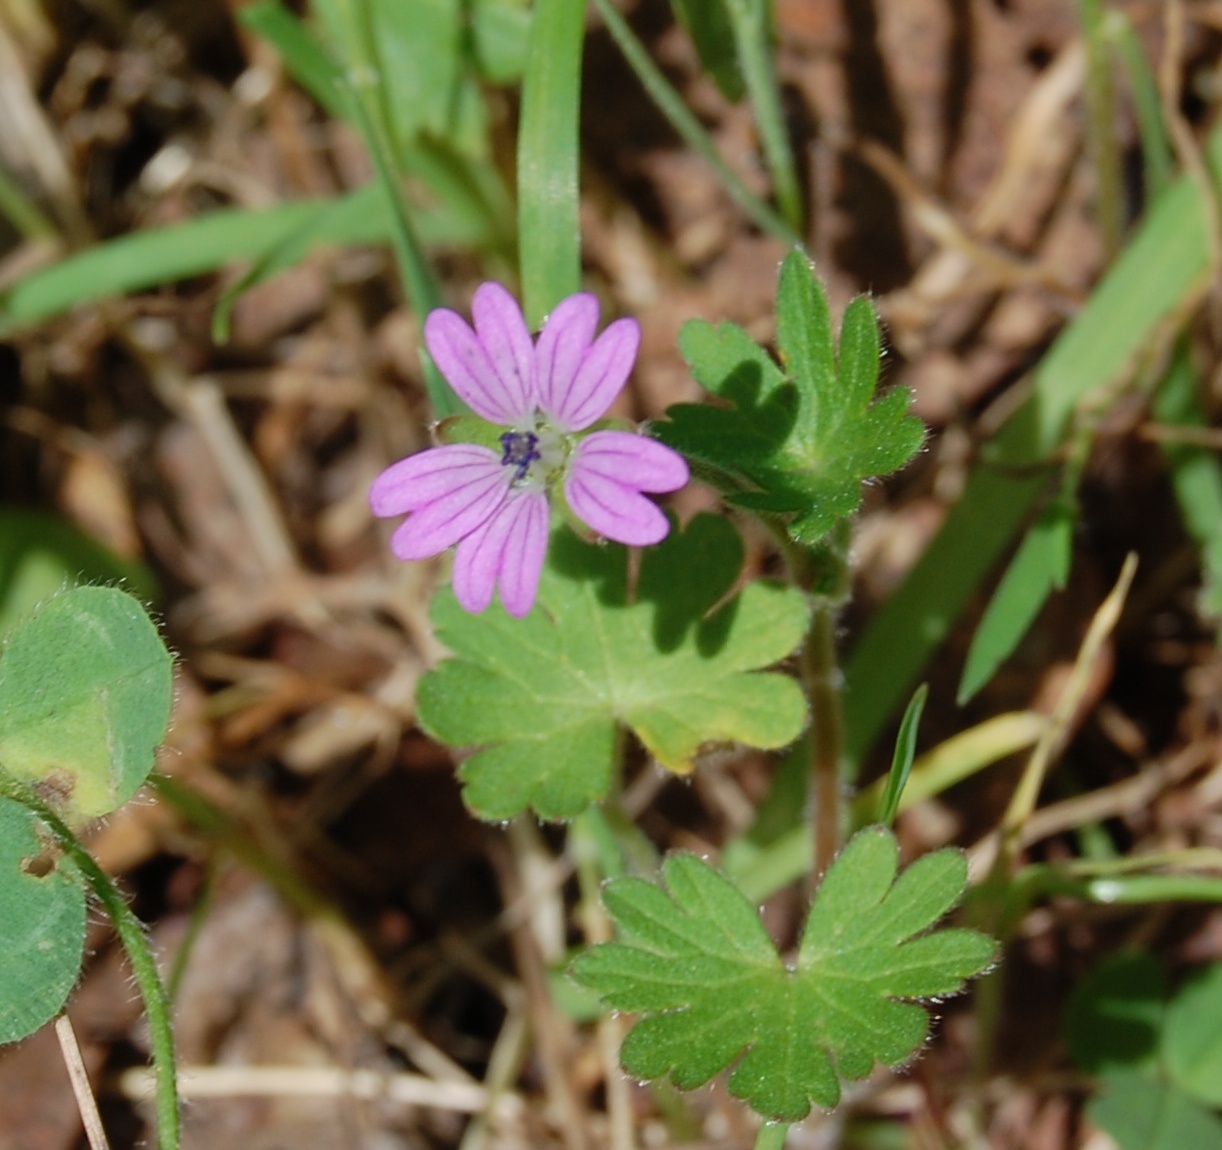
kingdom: Plantae
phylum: Tracheophyta
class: Magnoliopsida
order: Geraniales
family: Geraniaceae
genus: Geranium
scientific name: Geranium molle
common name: Dove's-foot crane's-bill
